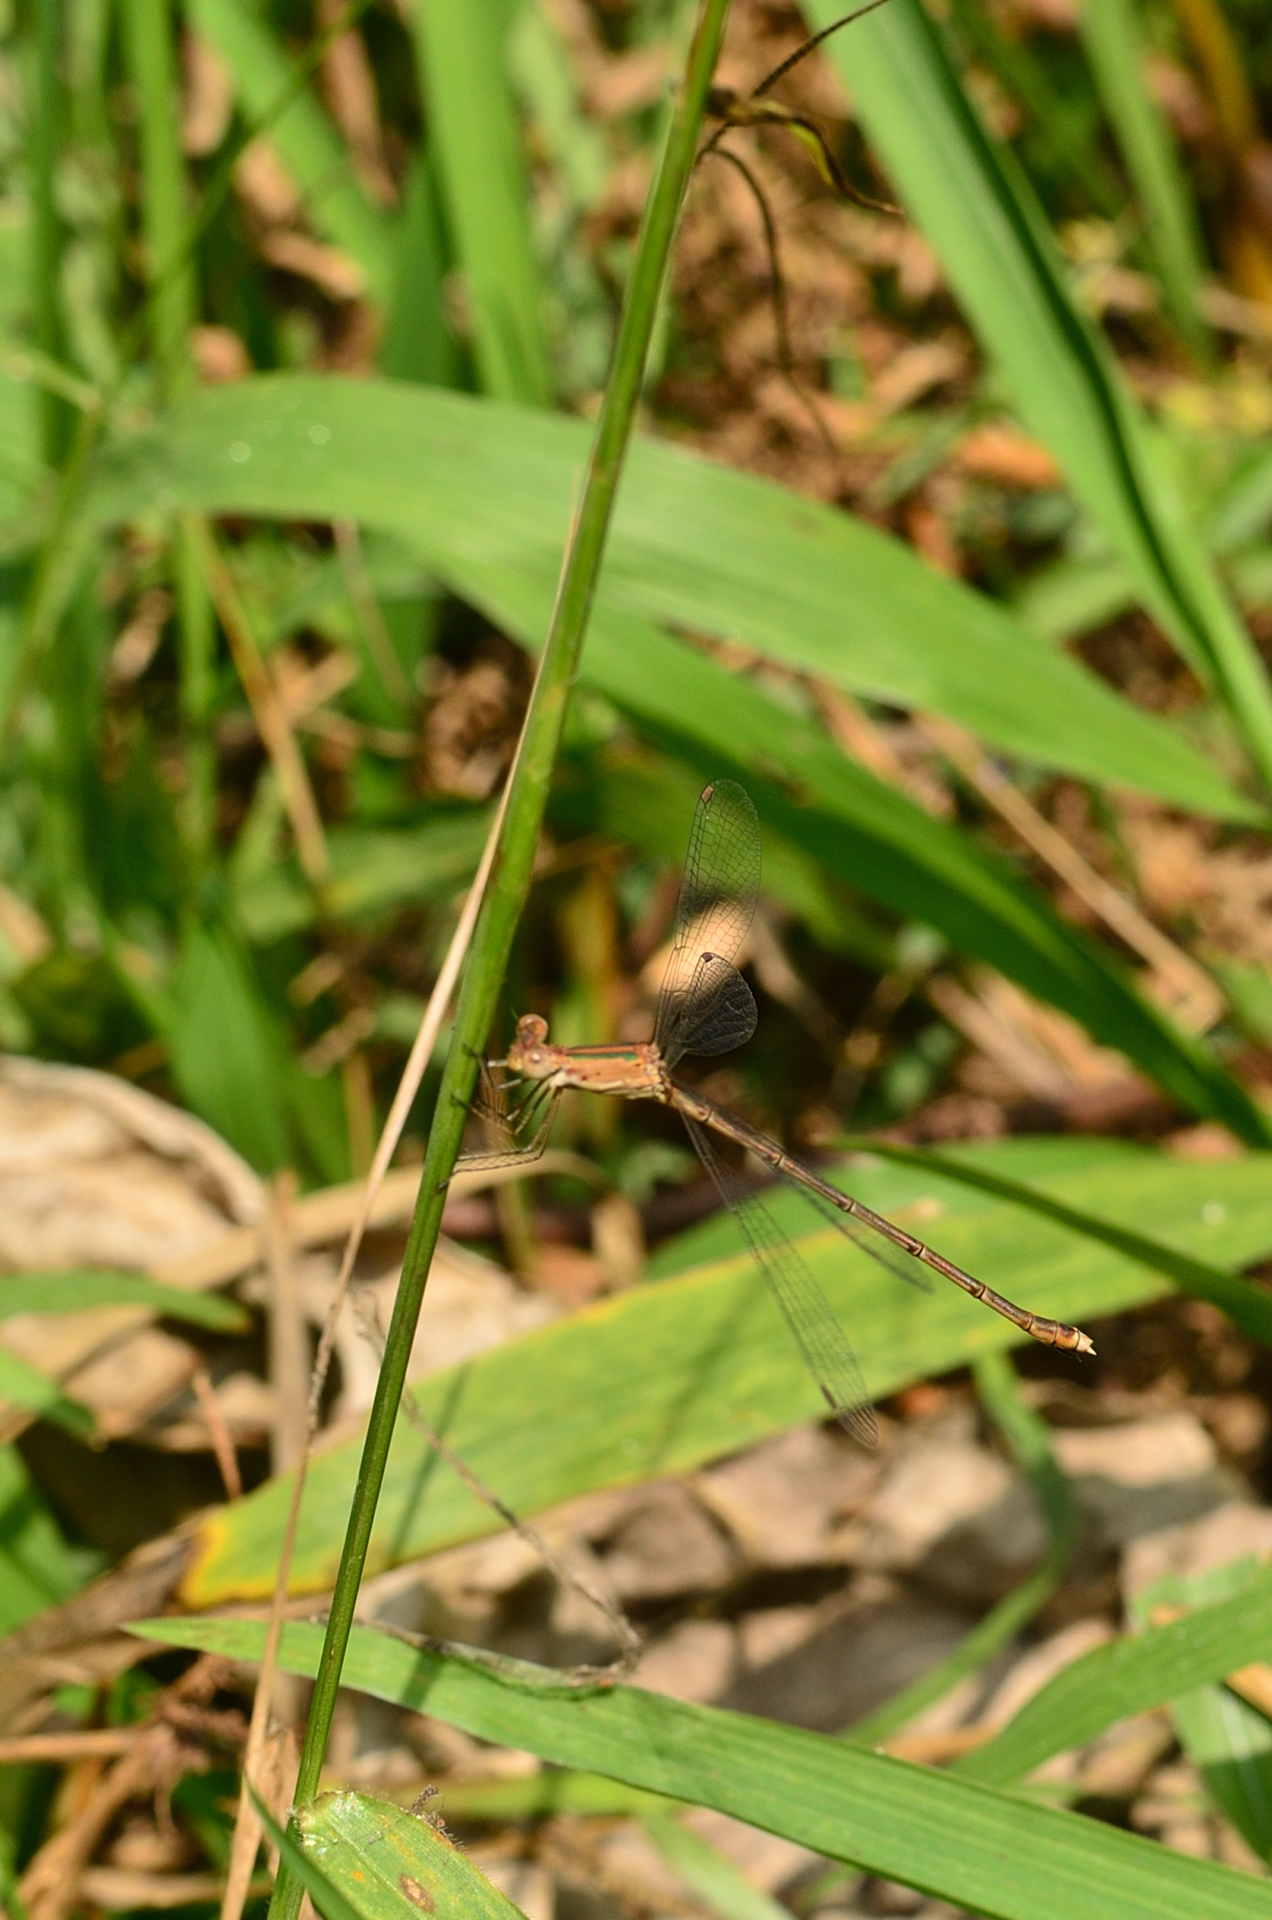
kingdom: Animalia
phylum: Arthropoda
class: Insecta
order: Odonata
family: Lestidae
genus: Lestes
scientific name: Lestes elatus
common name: Emerald spreadwing
